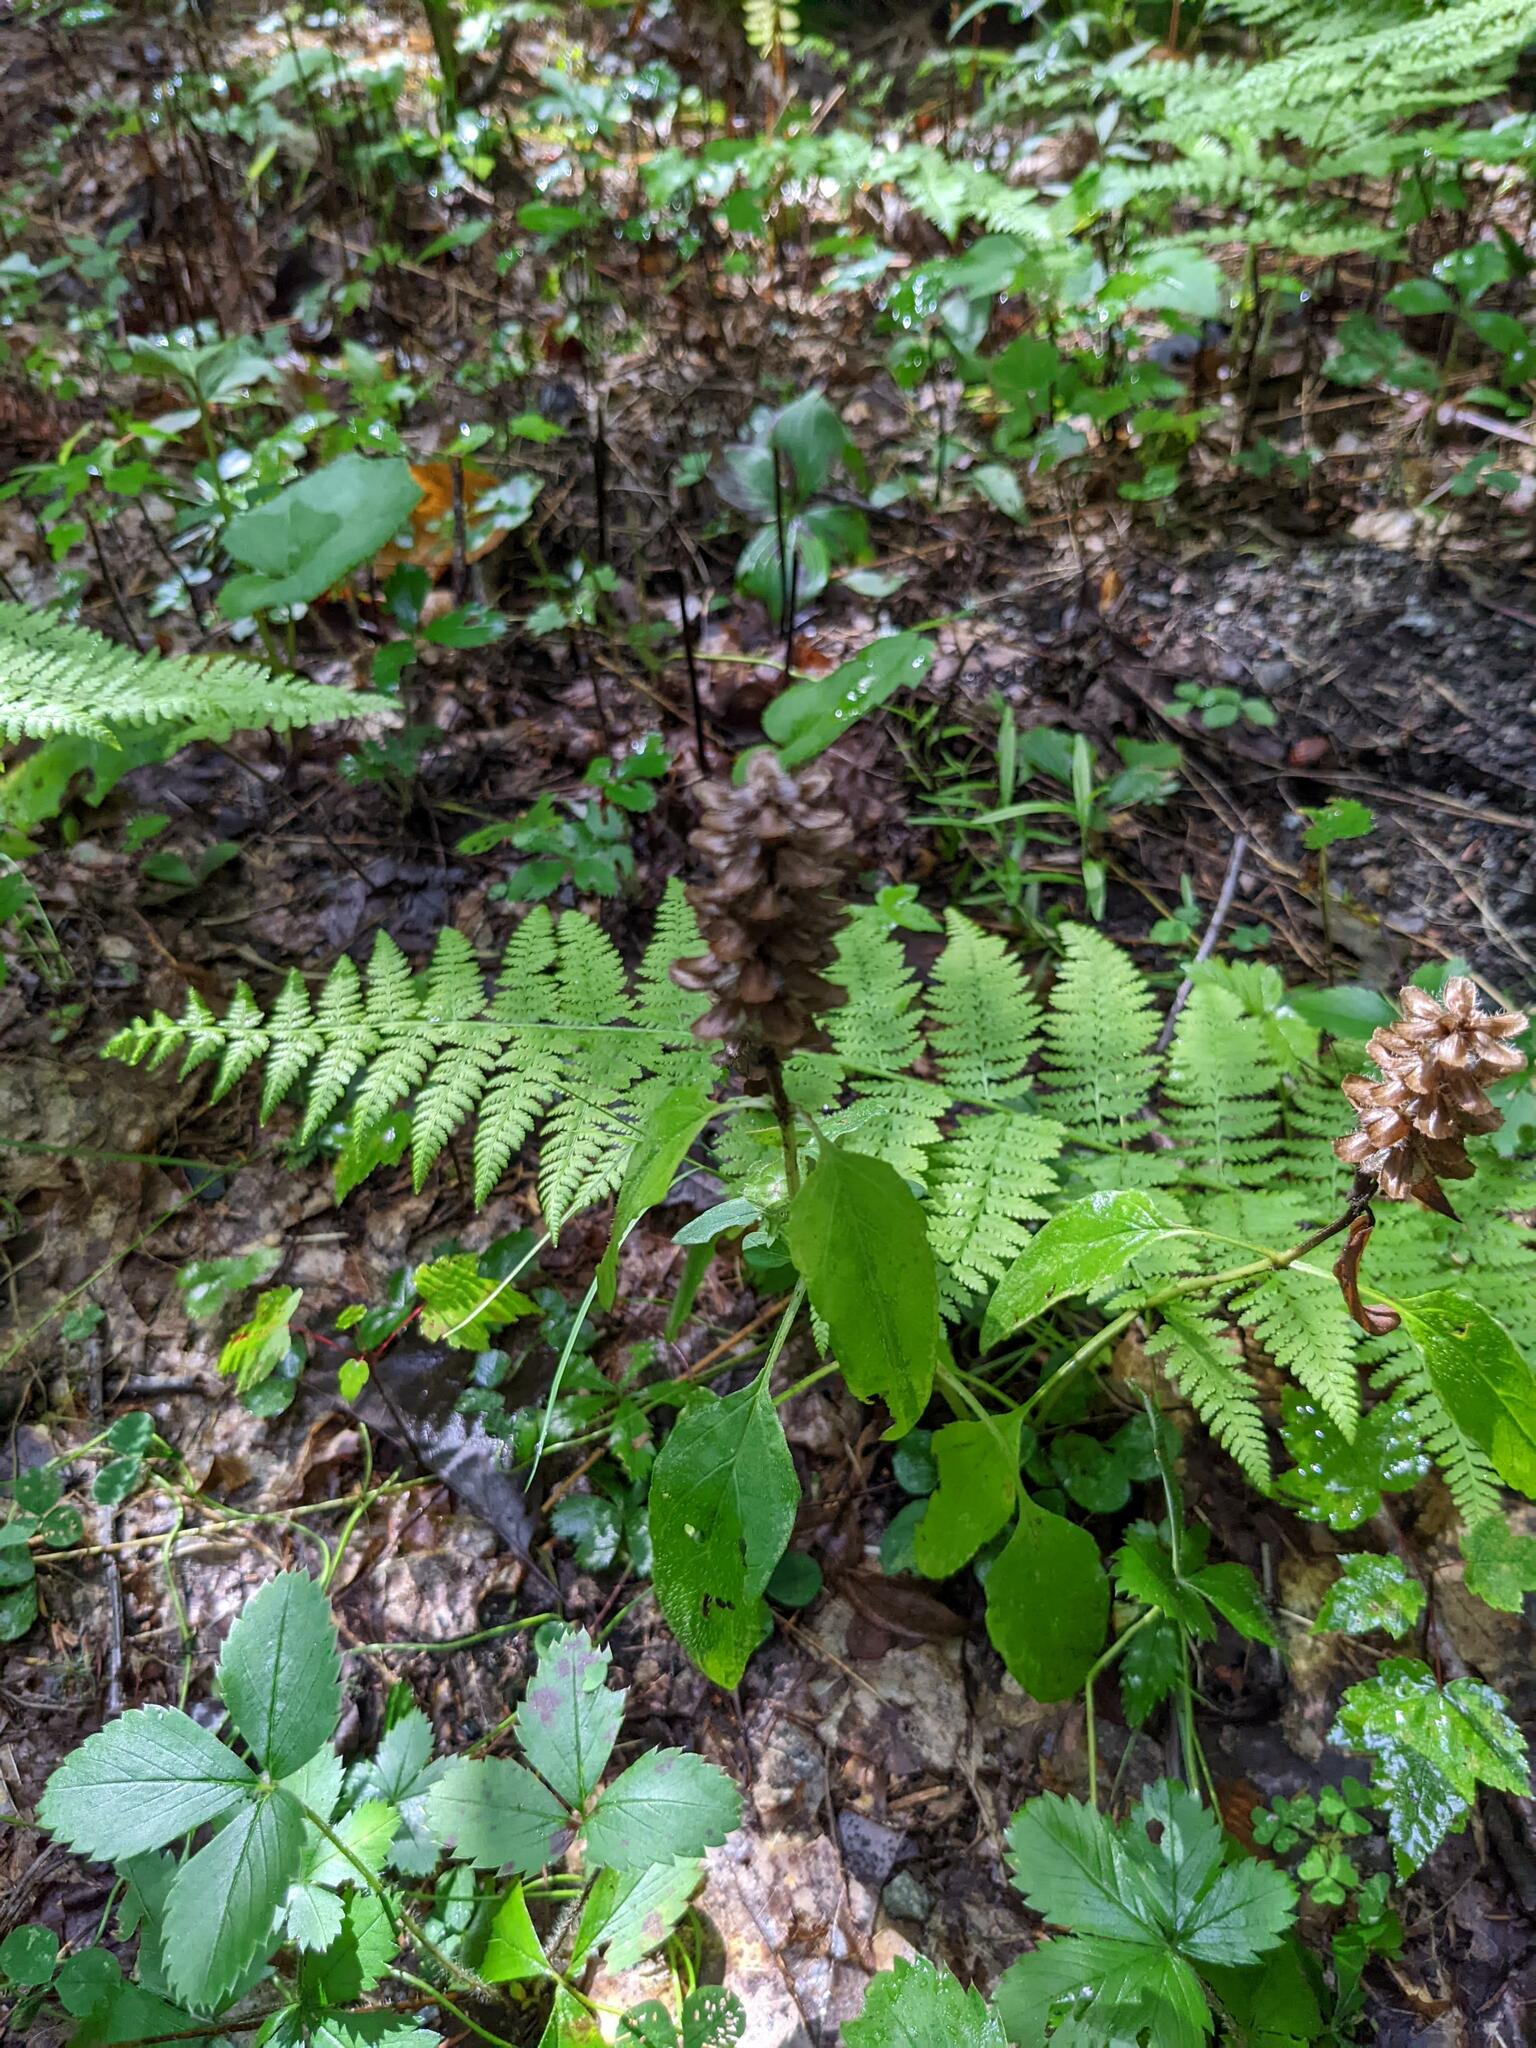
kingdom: Plantae
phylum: Tracheophyta
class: Magnoliopsida
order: Lamiales
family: Lamiaceae
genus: Prunella
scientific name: Prunella vulgaris
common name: Heal-all
